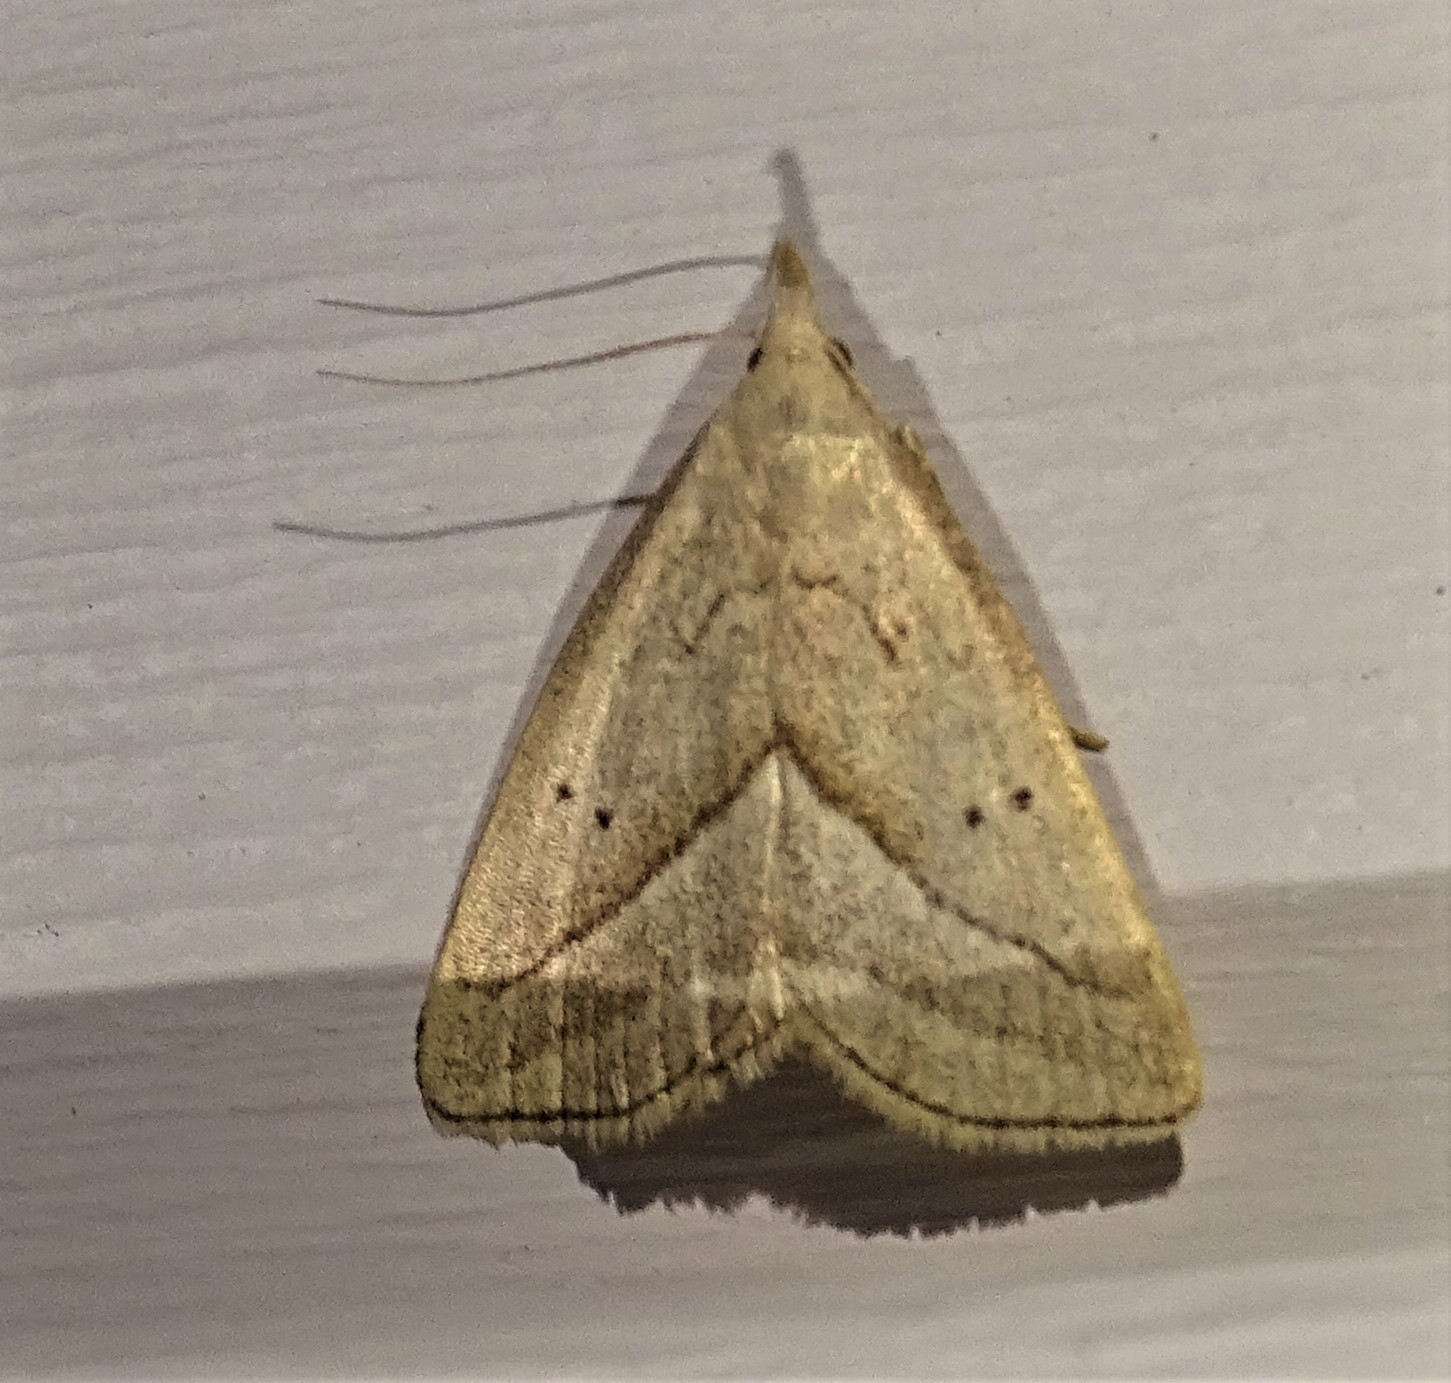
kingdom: Animalia
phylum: Arthropoda
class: Insecta
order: Lepidoptera
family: Erebidae
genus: Macrochilo
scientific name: Macrochilo absorptalis
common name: Slant-lined owlet
